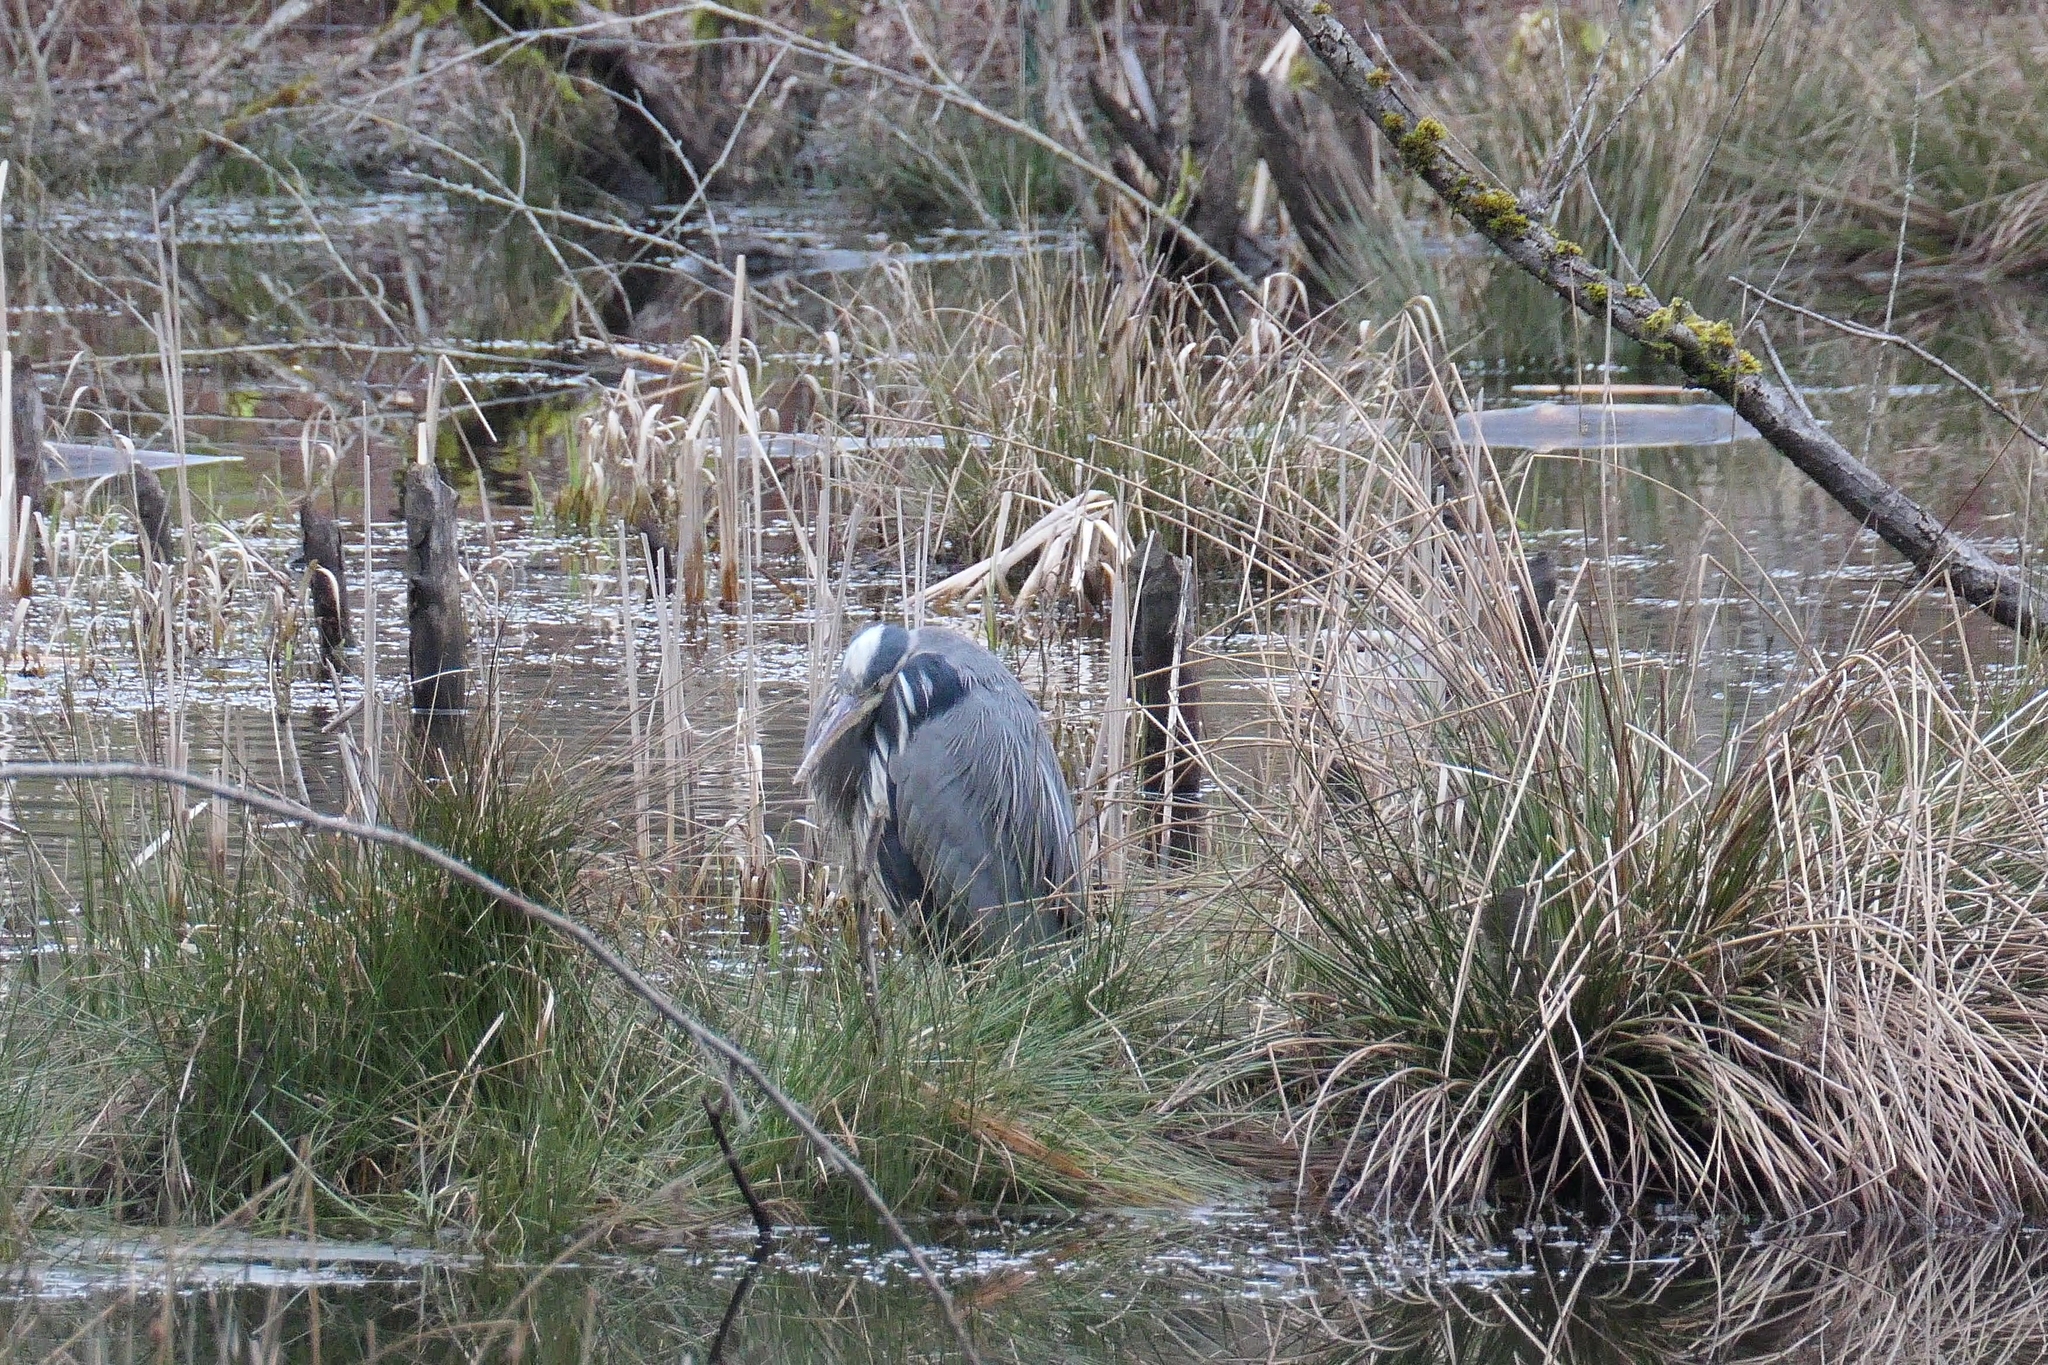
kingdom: Animalia
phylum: Chordata
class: Aves
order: Pelecaniformes
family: Ardeidae
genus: Ardea
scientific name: Ardea herodias
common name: Great blue heron
